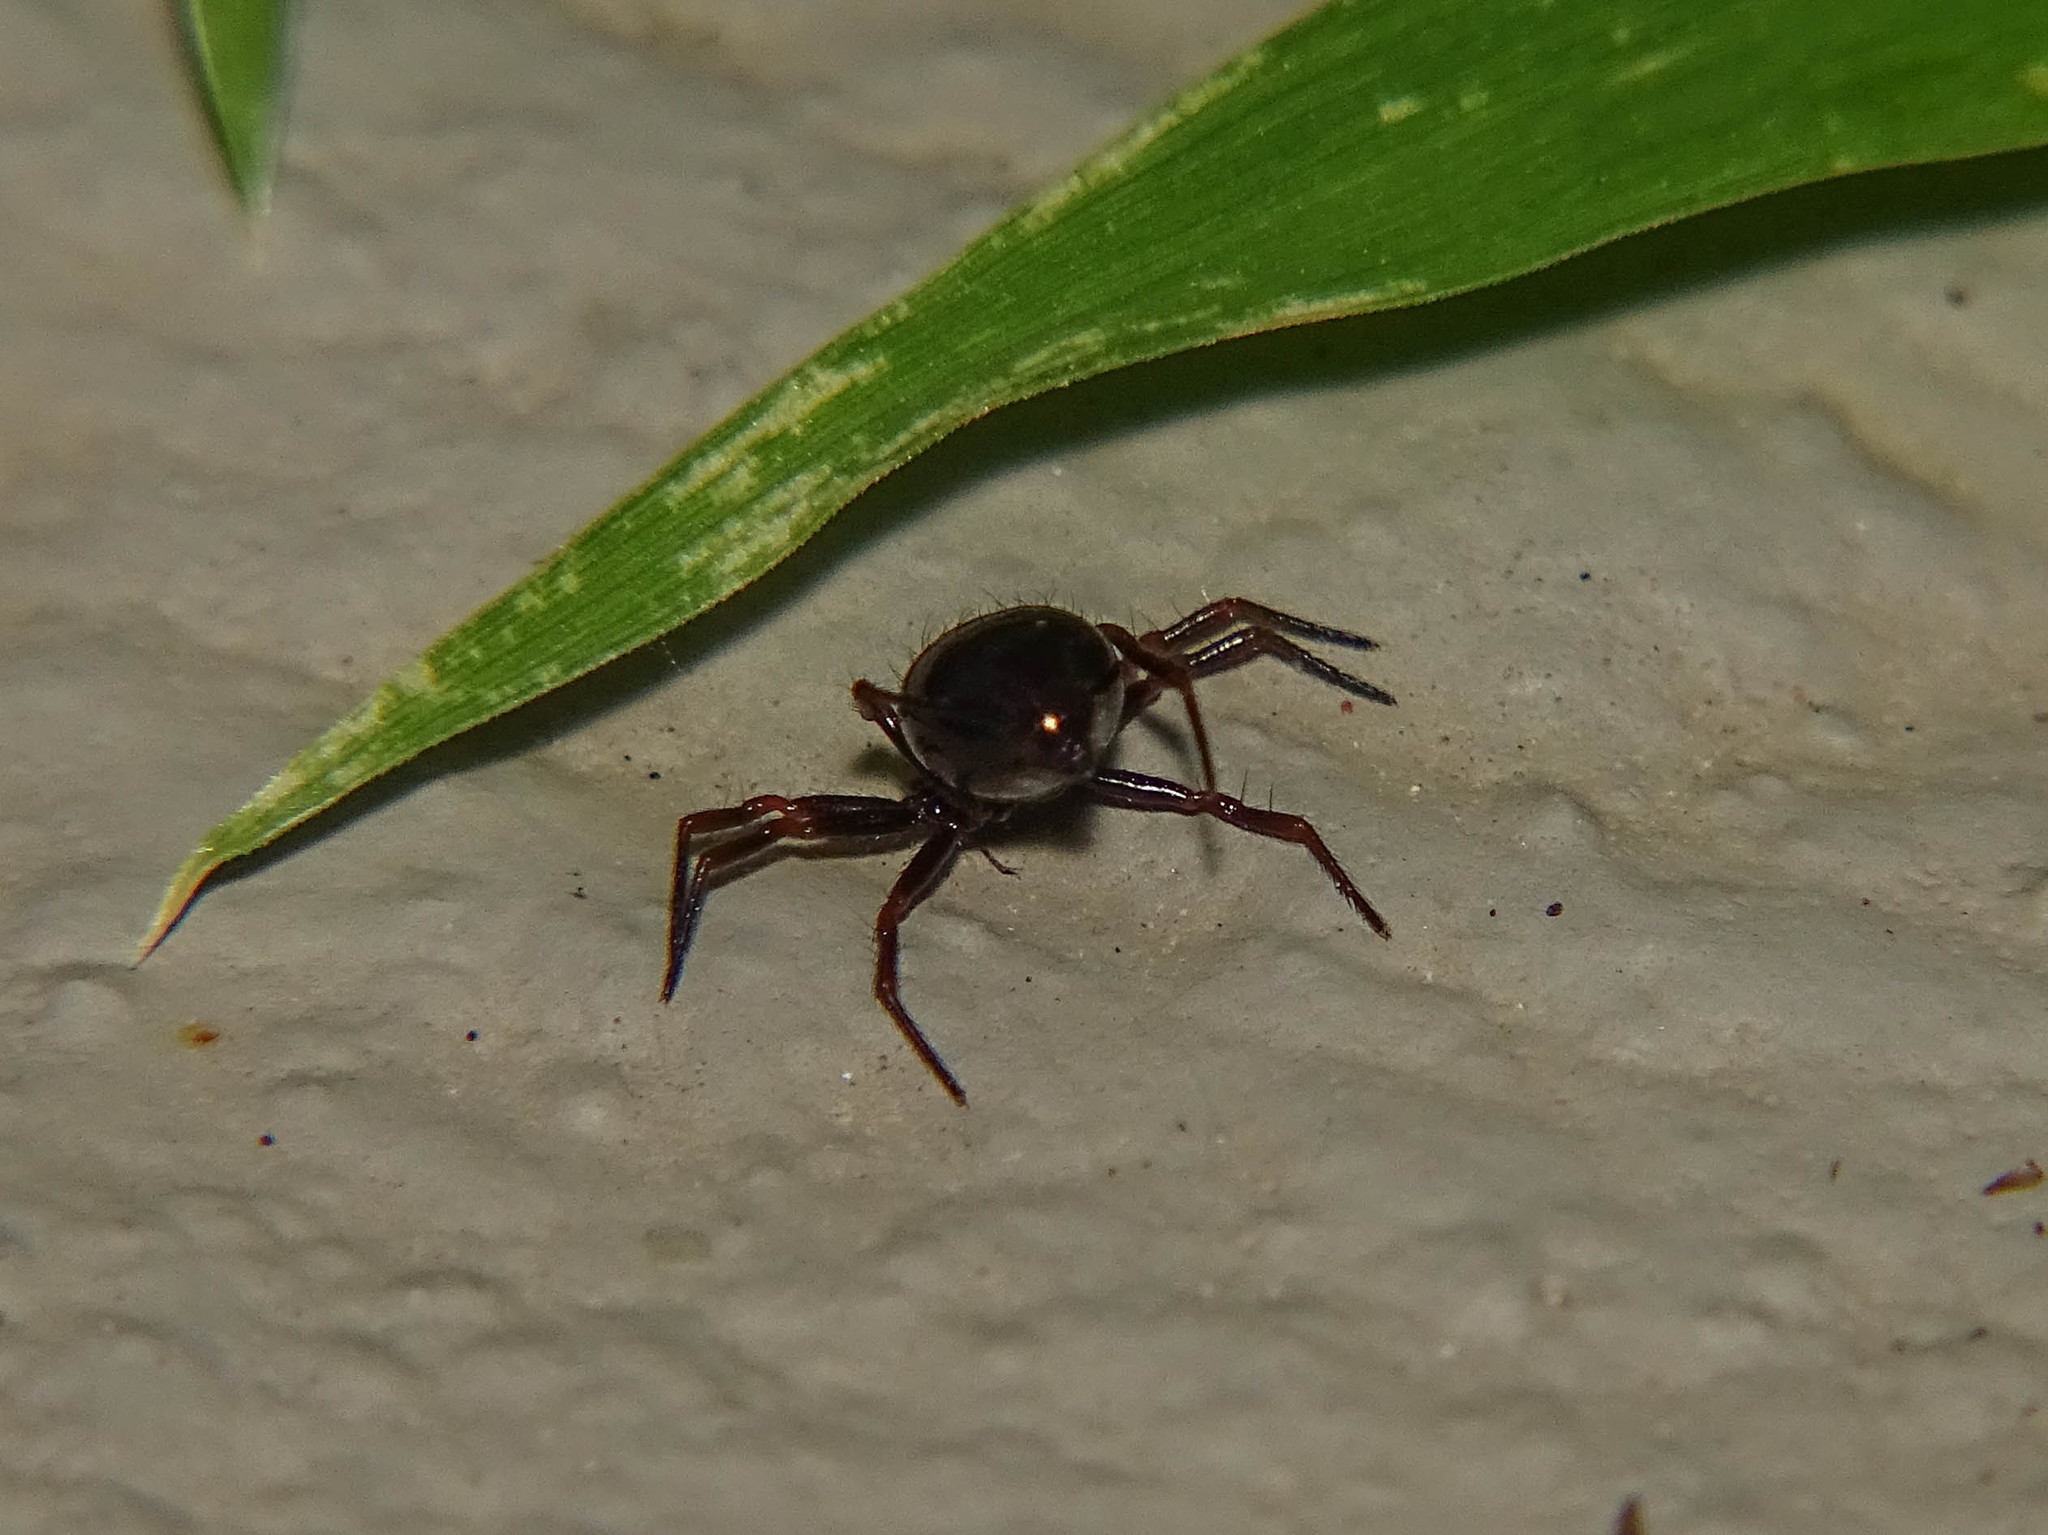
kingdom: Animalia
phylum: Arthropoda
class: Arachnida
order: Araneae
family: Theridiidae
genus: Euryopis
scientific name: Euryopis episinoides
